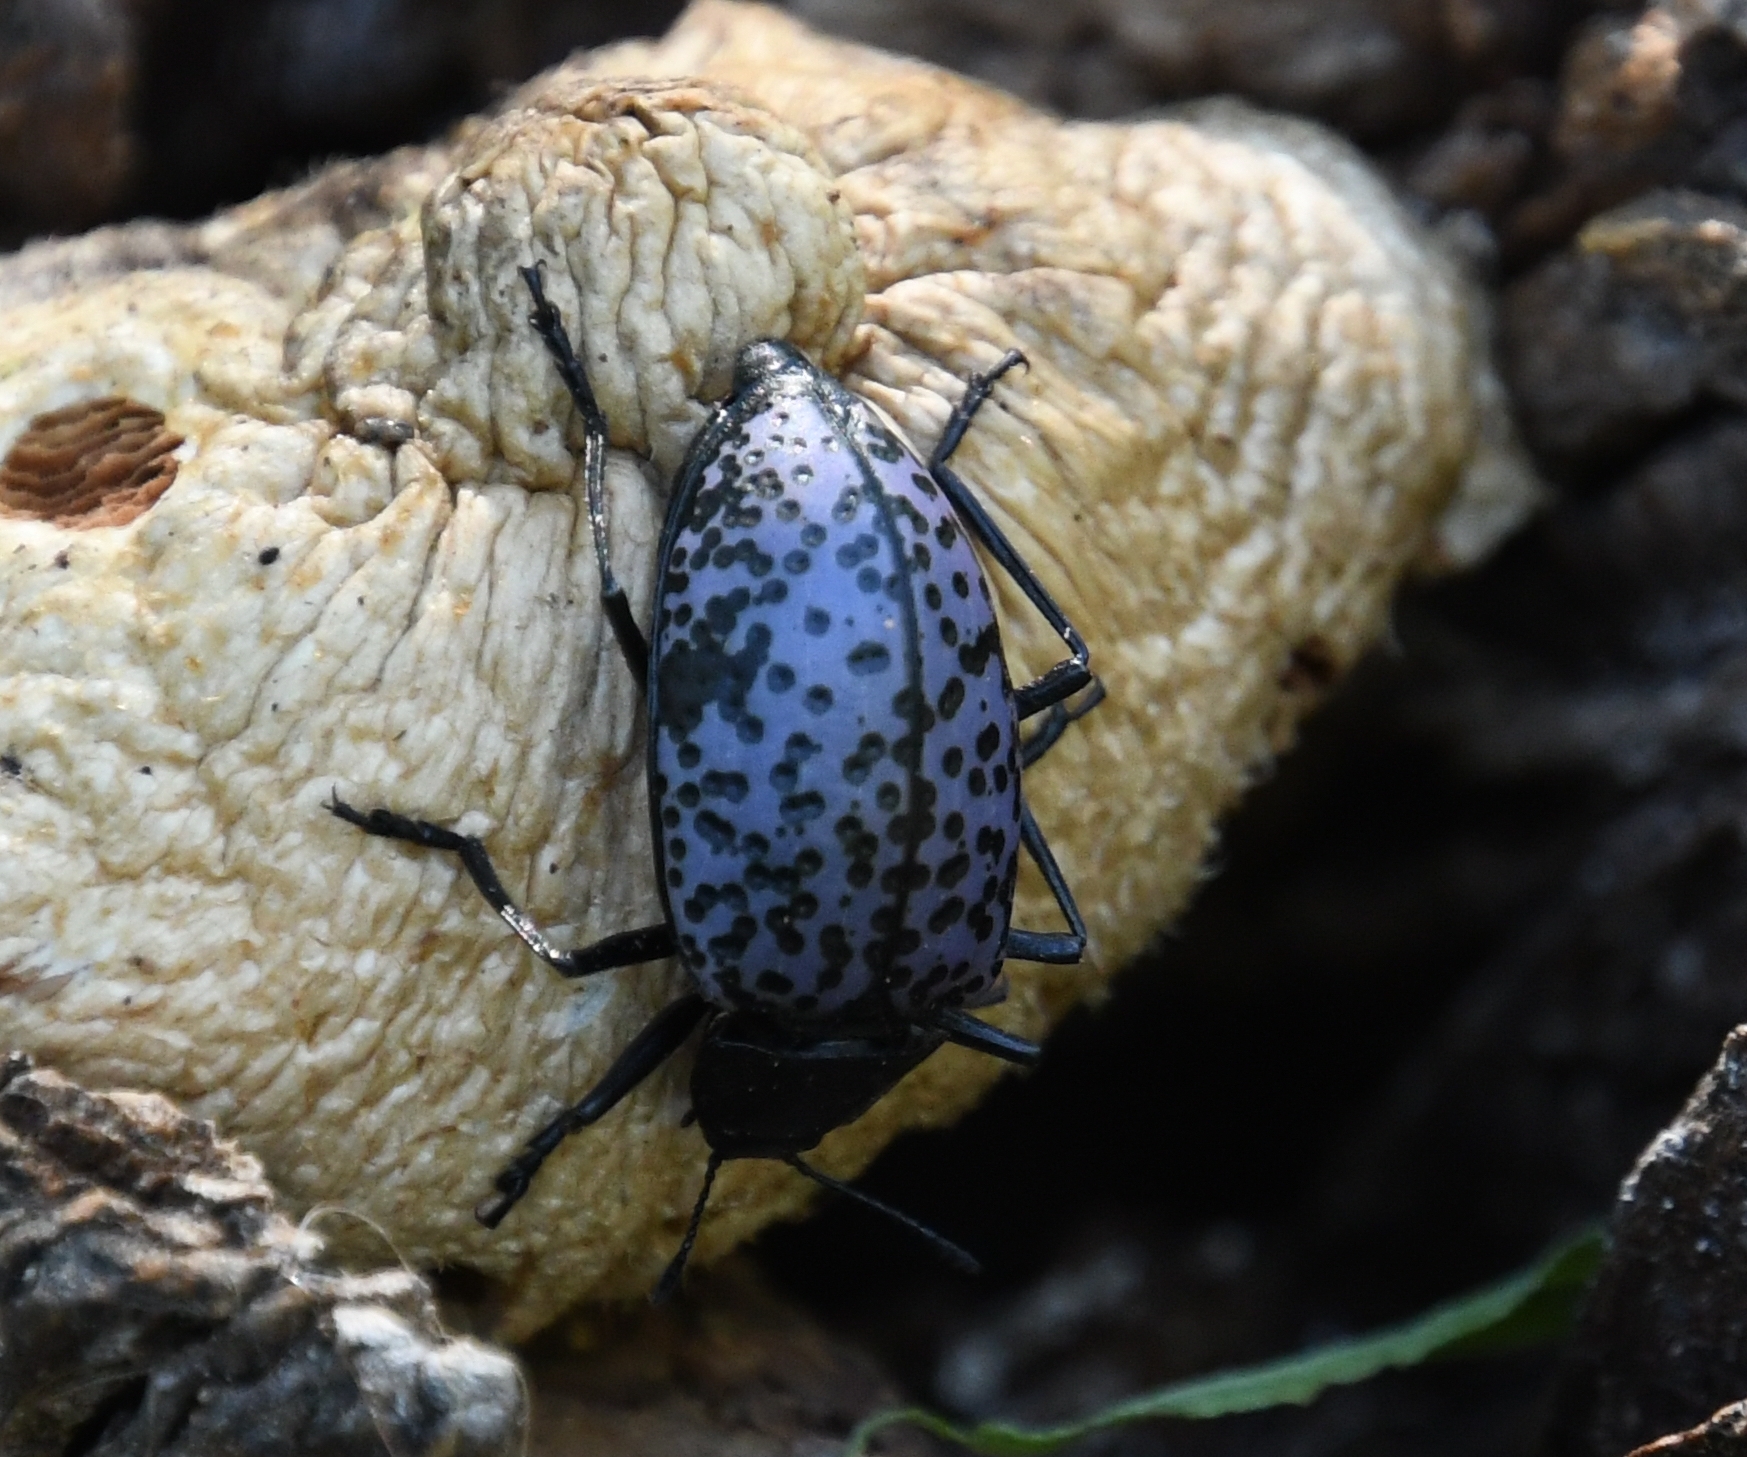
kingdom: Animalia
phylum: Arthropoda
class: Insecta
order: Coleoptera
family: Erotylidae
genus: Gibbifer
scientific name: Gibbifer californicus
